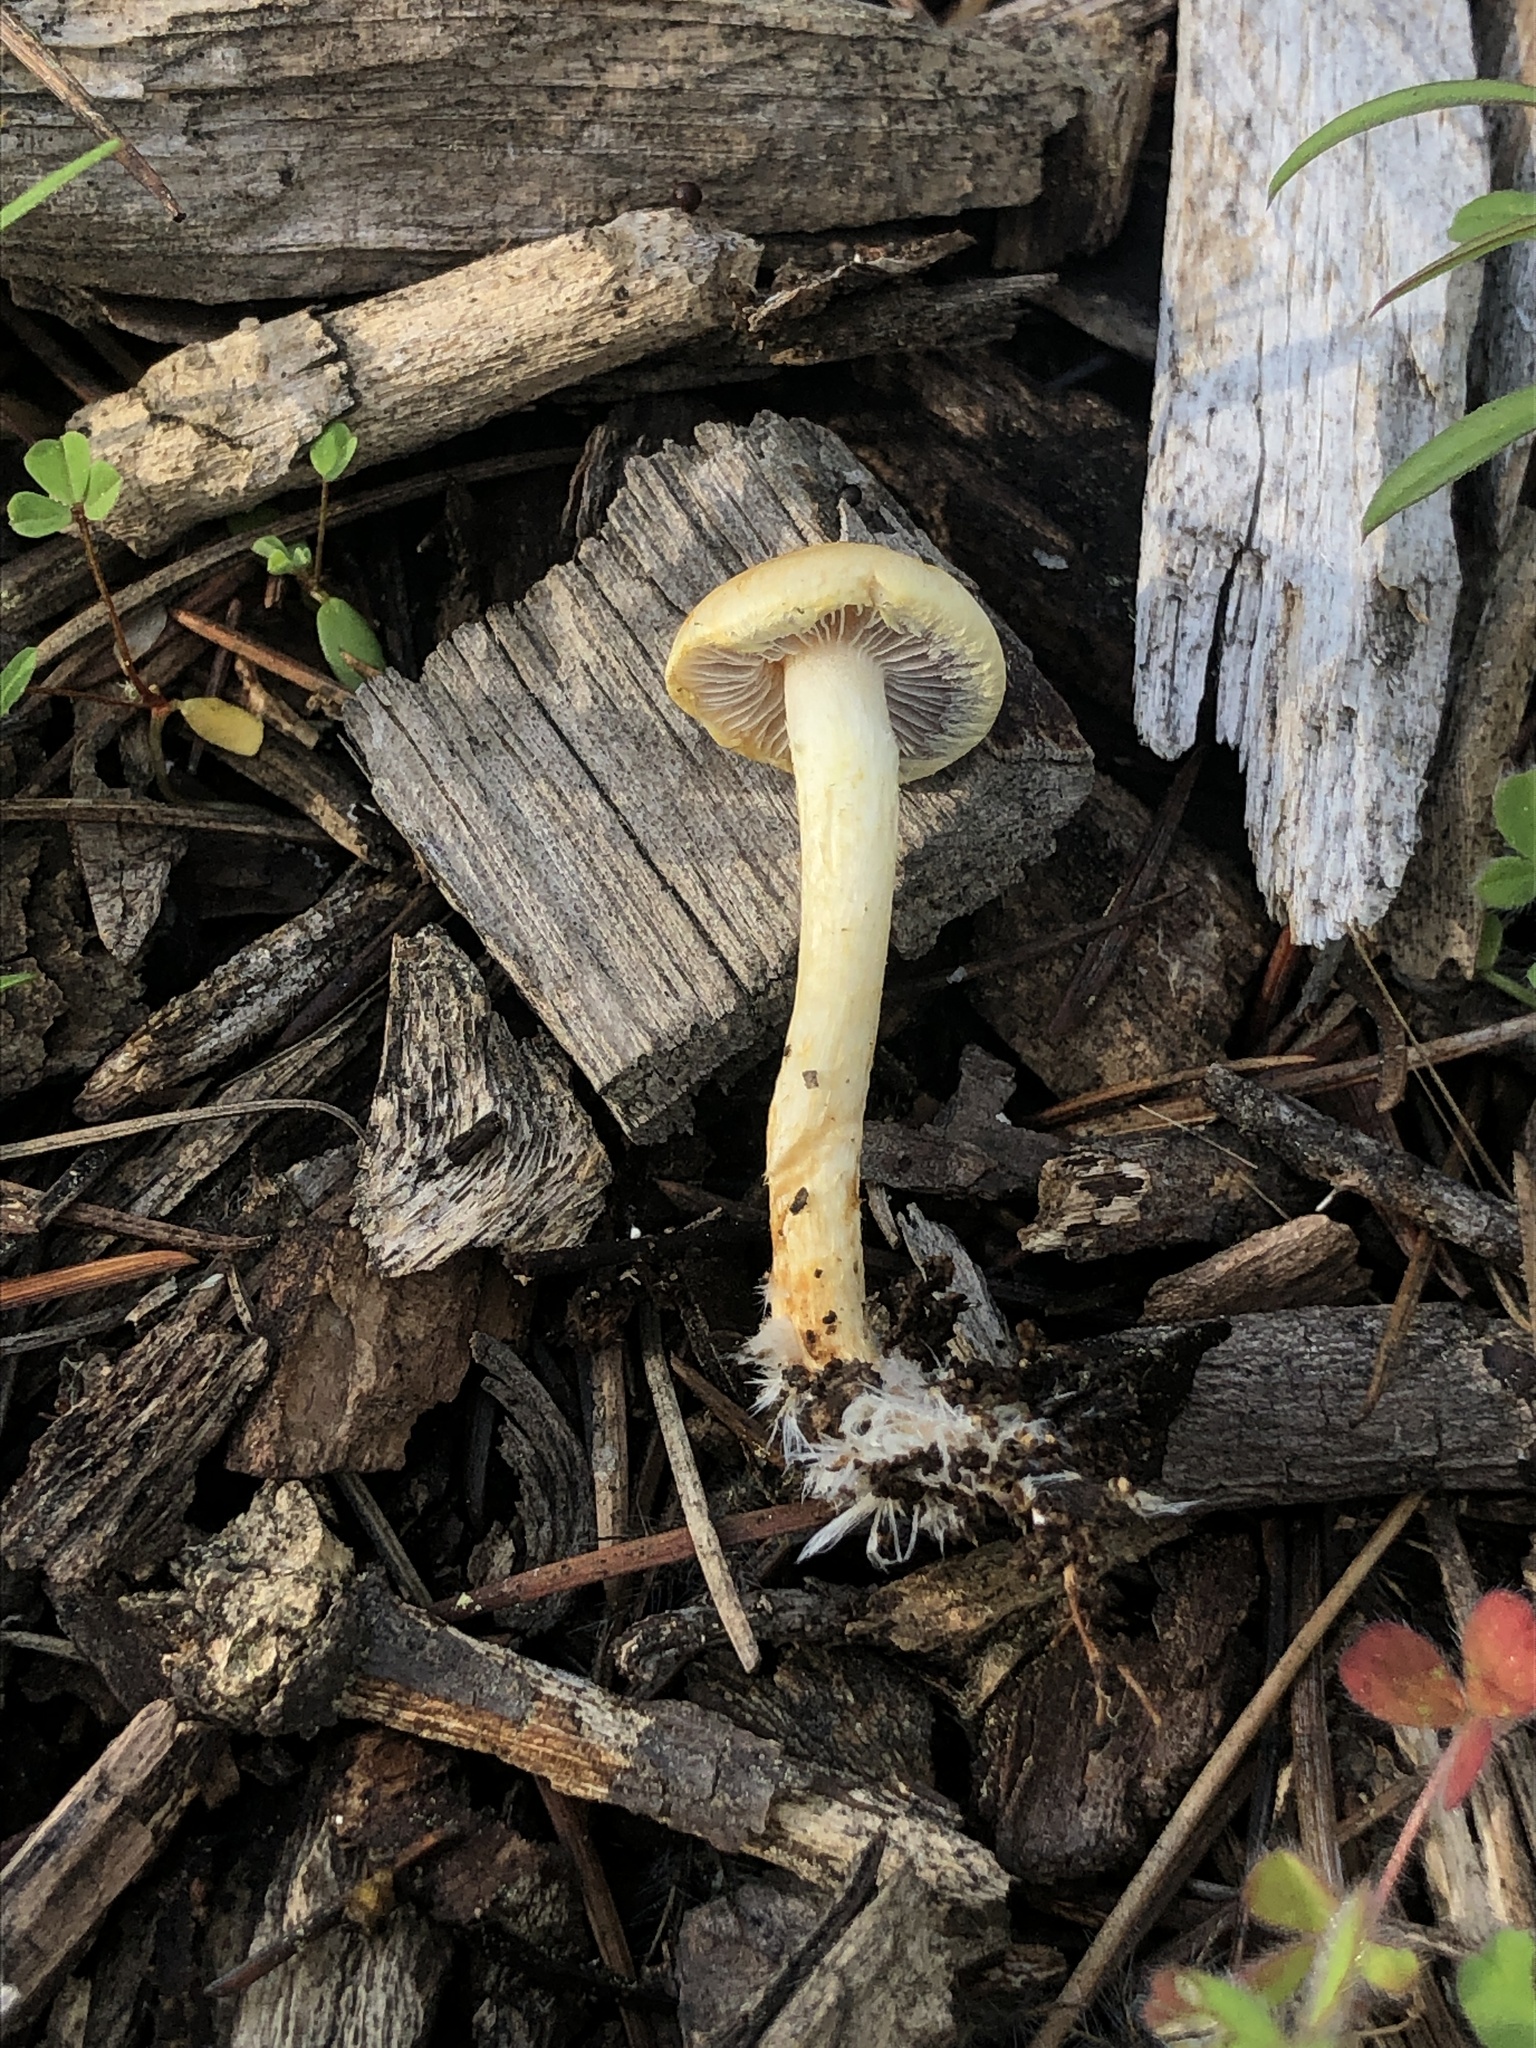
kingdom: Fungi
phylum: Basidiomycota
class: Agaricomycetes
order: Agaricales
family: Strophariaceae
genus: Leratiomyces
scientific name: Leratiomyces percevalii
